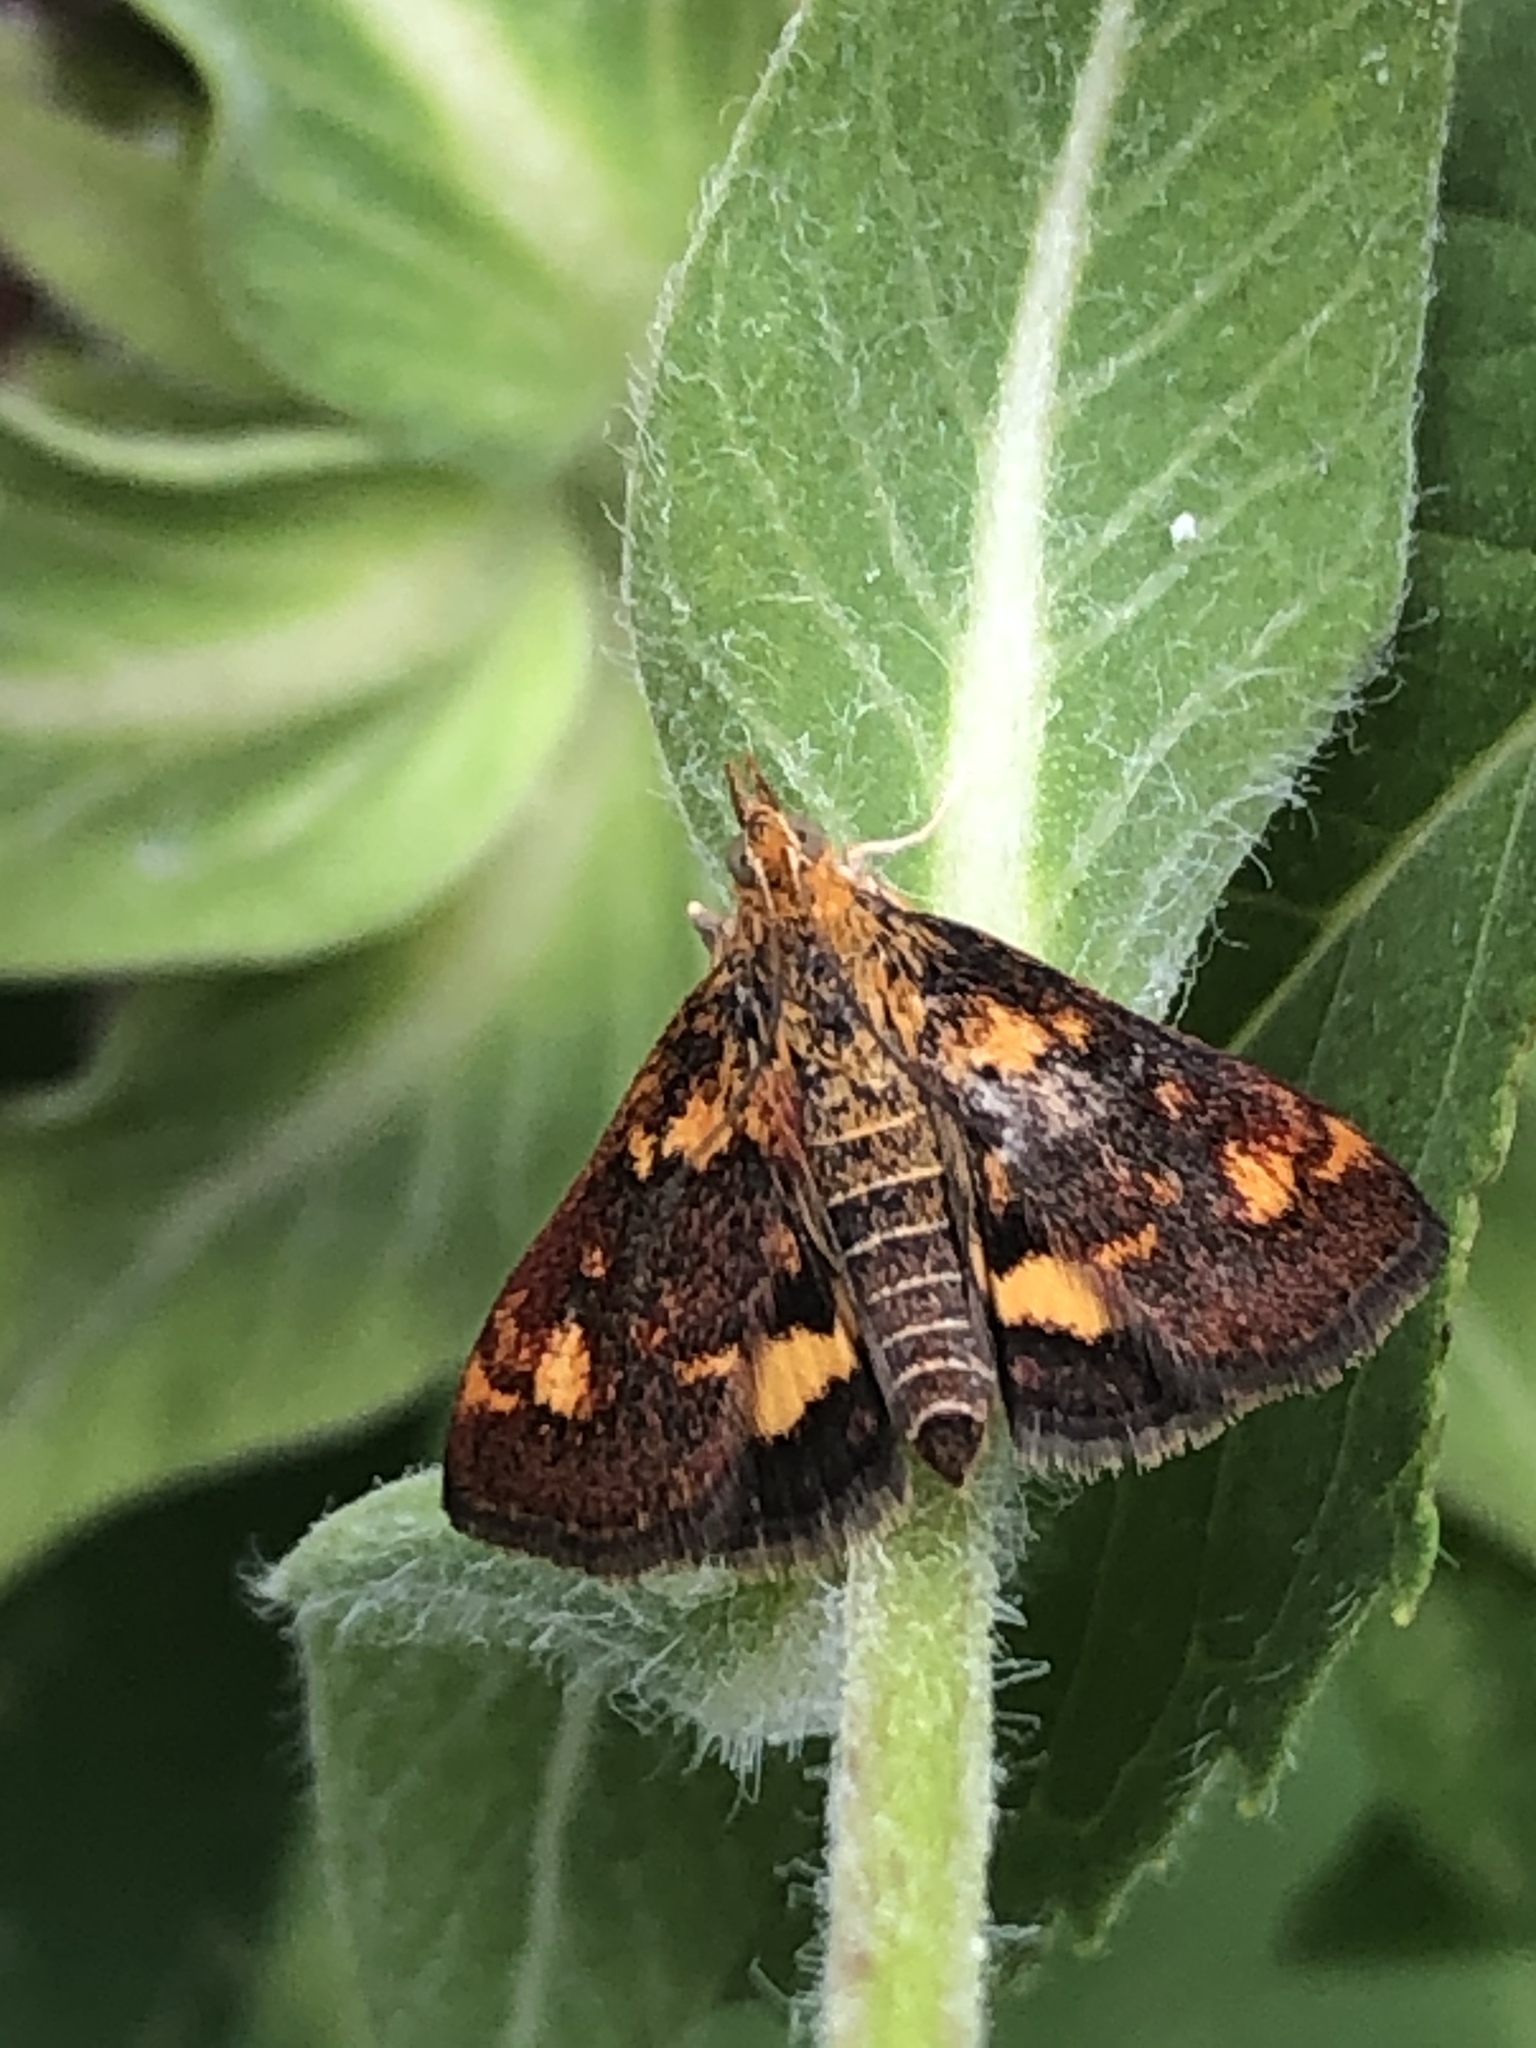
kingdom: Animalia
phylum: Arthropoda
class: Insecta
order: Lepidoptera
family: Crambidae
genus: Pyrausta
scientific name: Pyrausta orphisalis
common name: Orange mint moth
